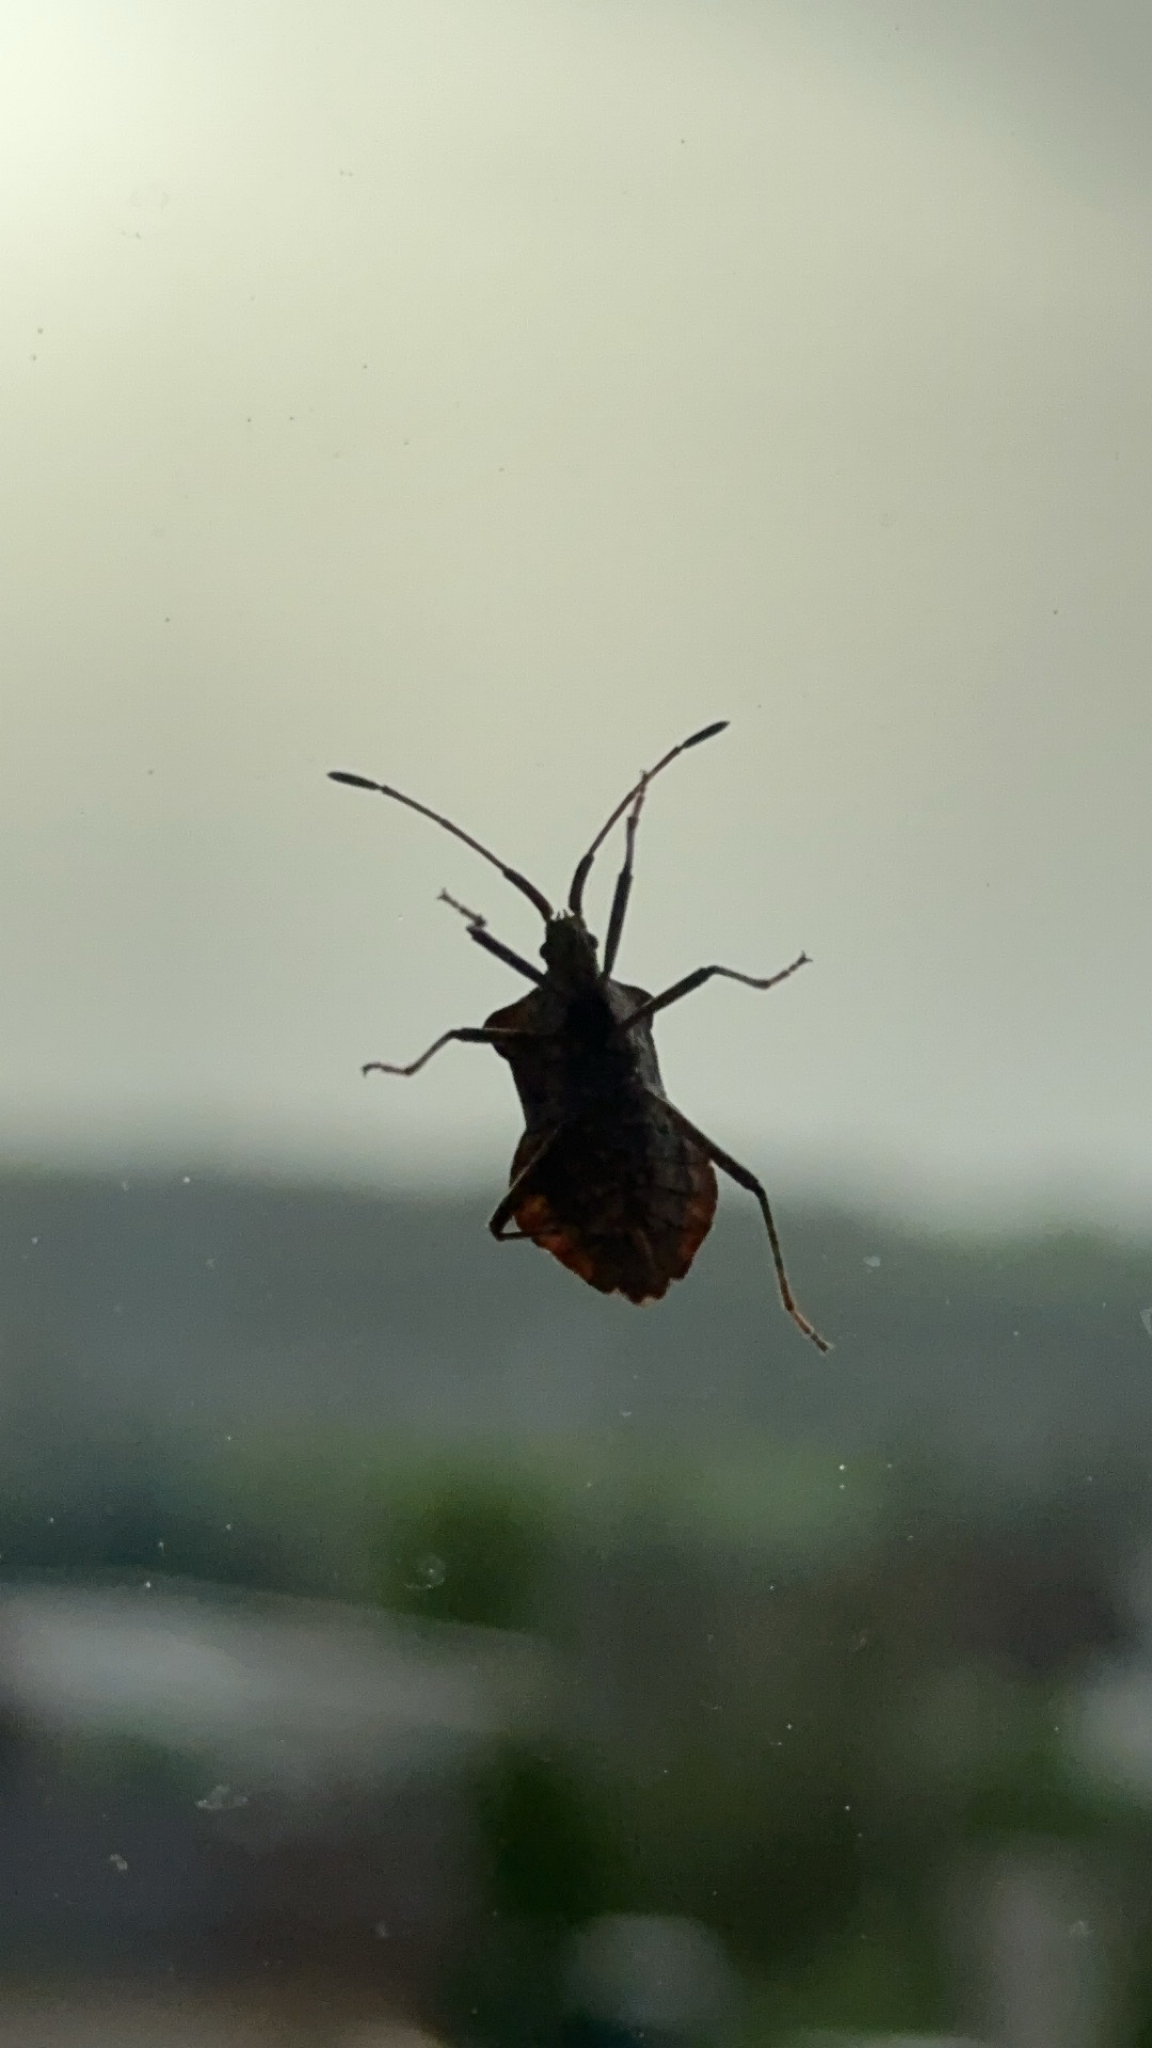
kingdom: Animalia
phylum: Arthropoda
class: Insecta
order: Hemiptera
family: Coreidae
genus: Coreus
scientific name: Coreus marginatus
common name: Dock bug
